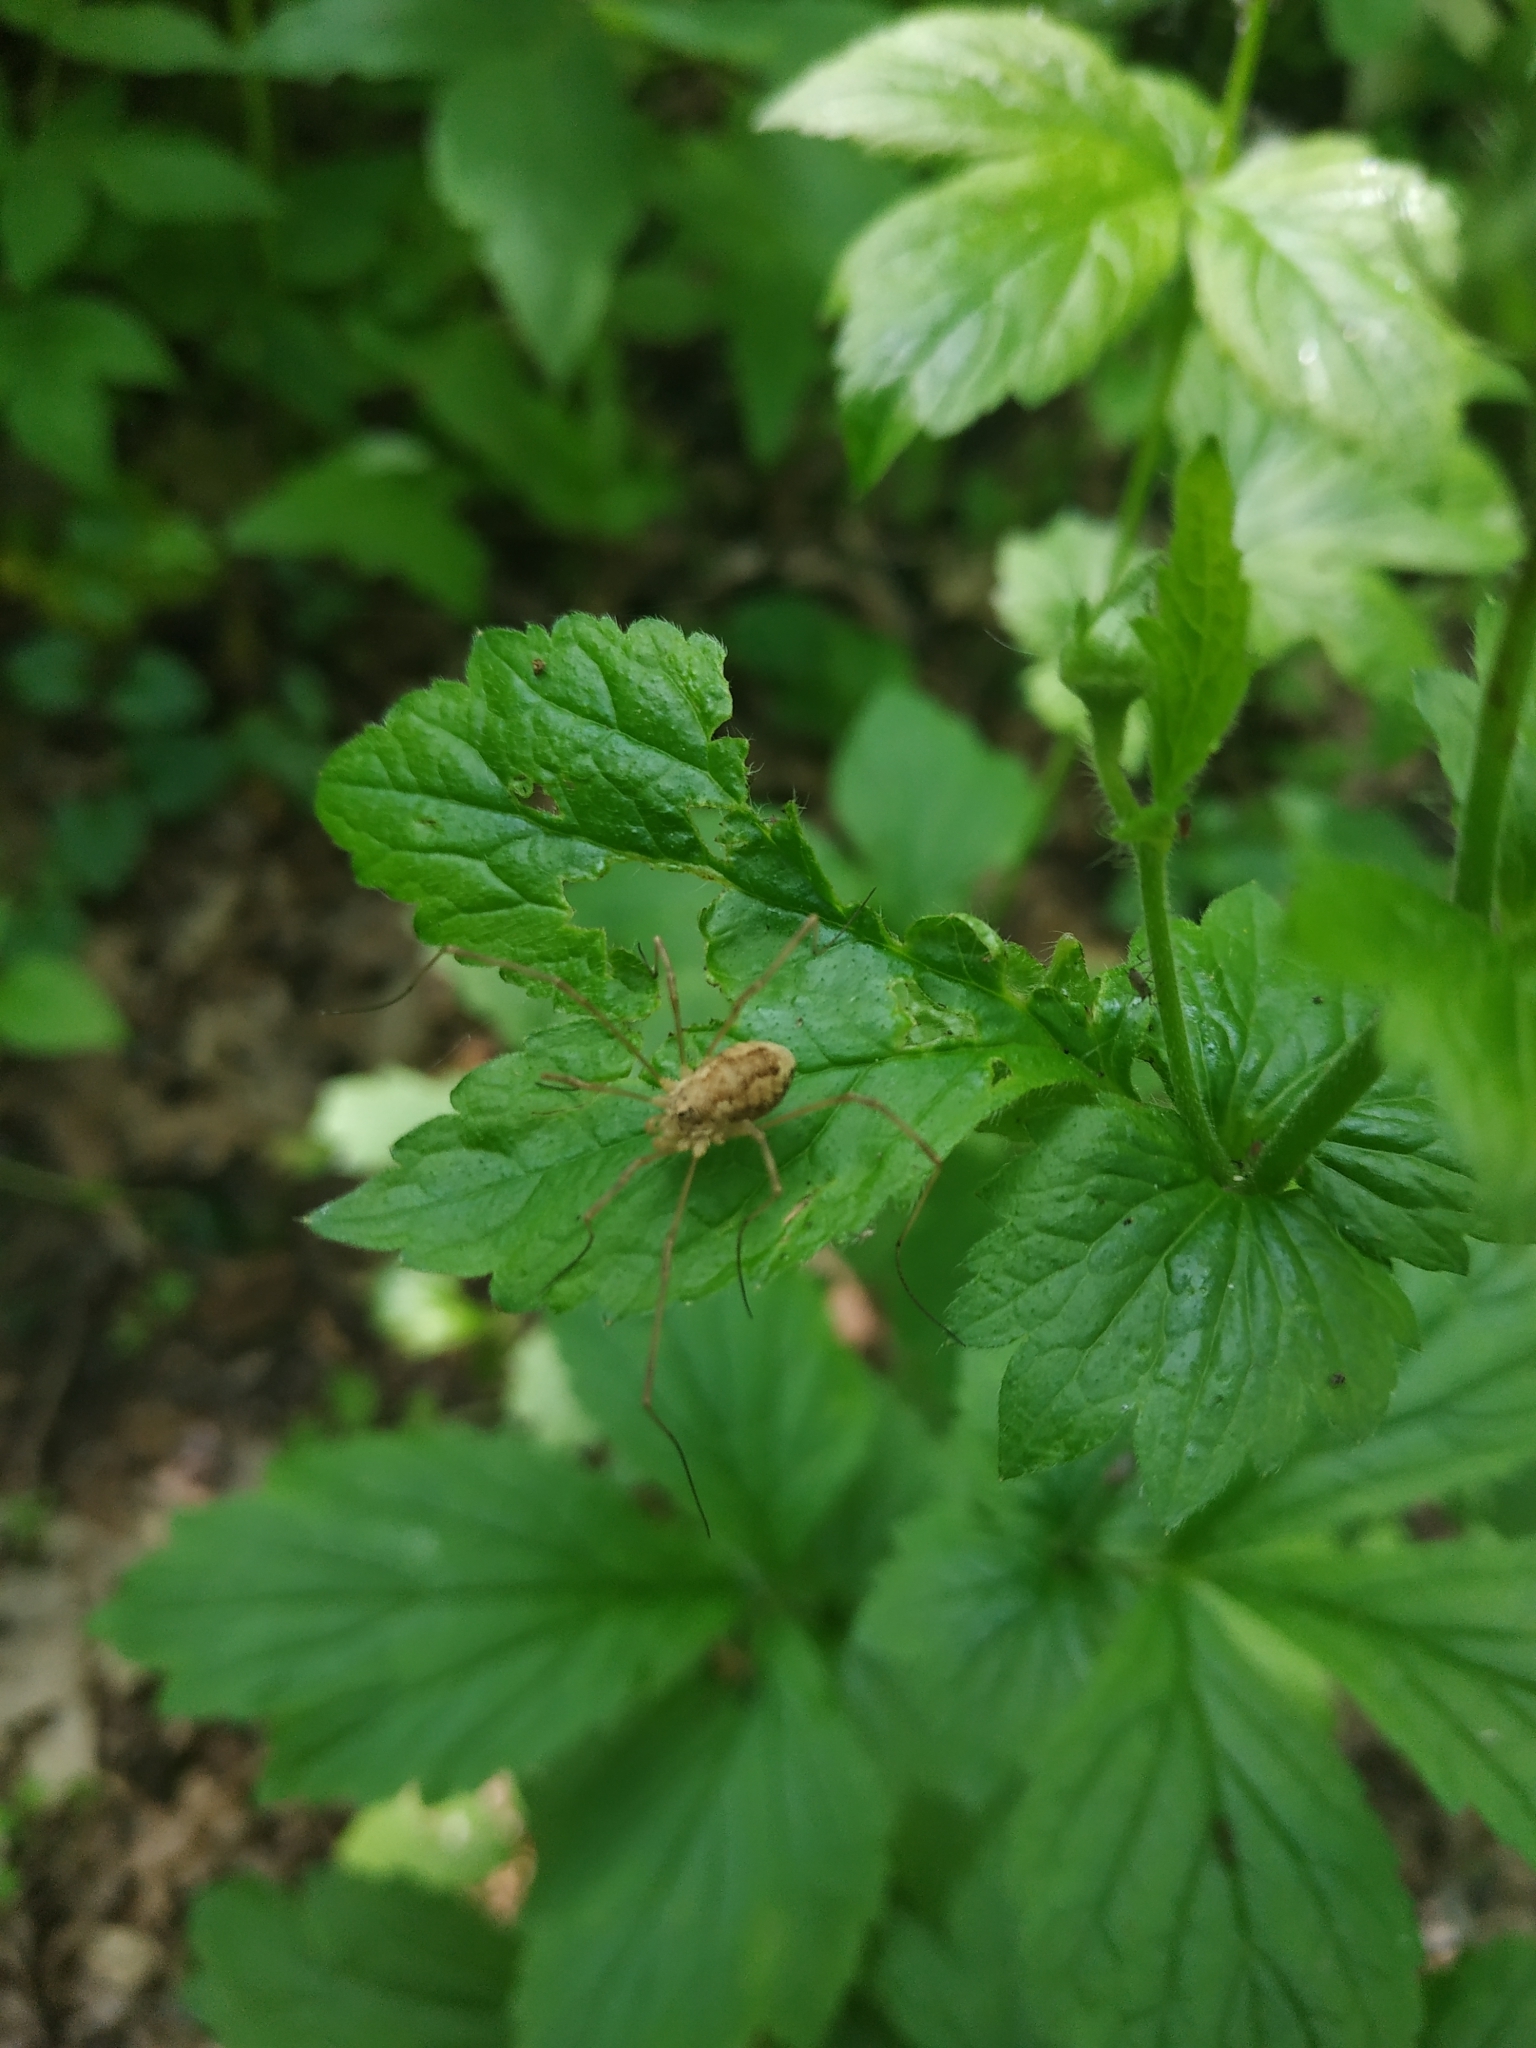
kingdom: Animalia
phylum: Arthropoda
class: Arachnida
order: Opiliones
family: Phalangiidae
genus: Rilaena
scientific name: Rilaena triangularis
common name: Spring harvestman
